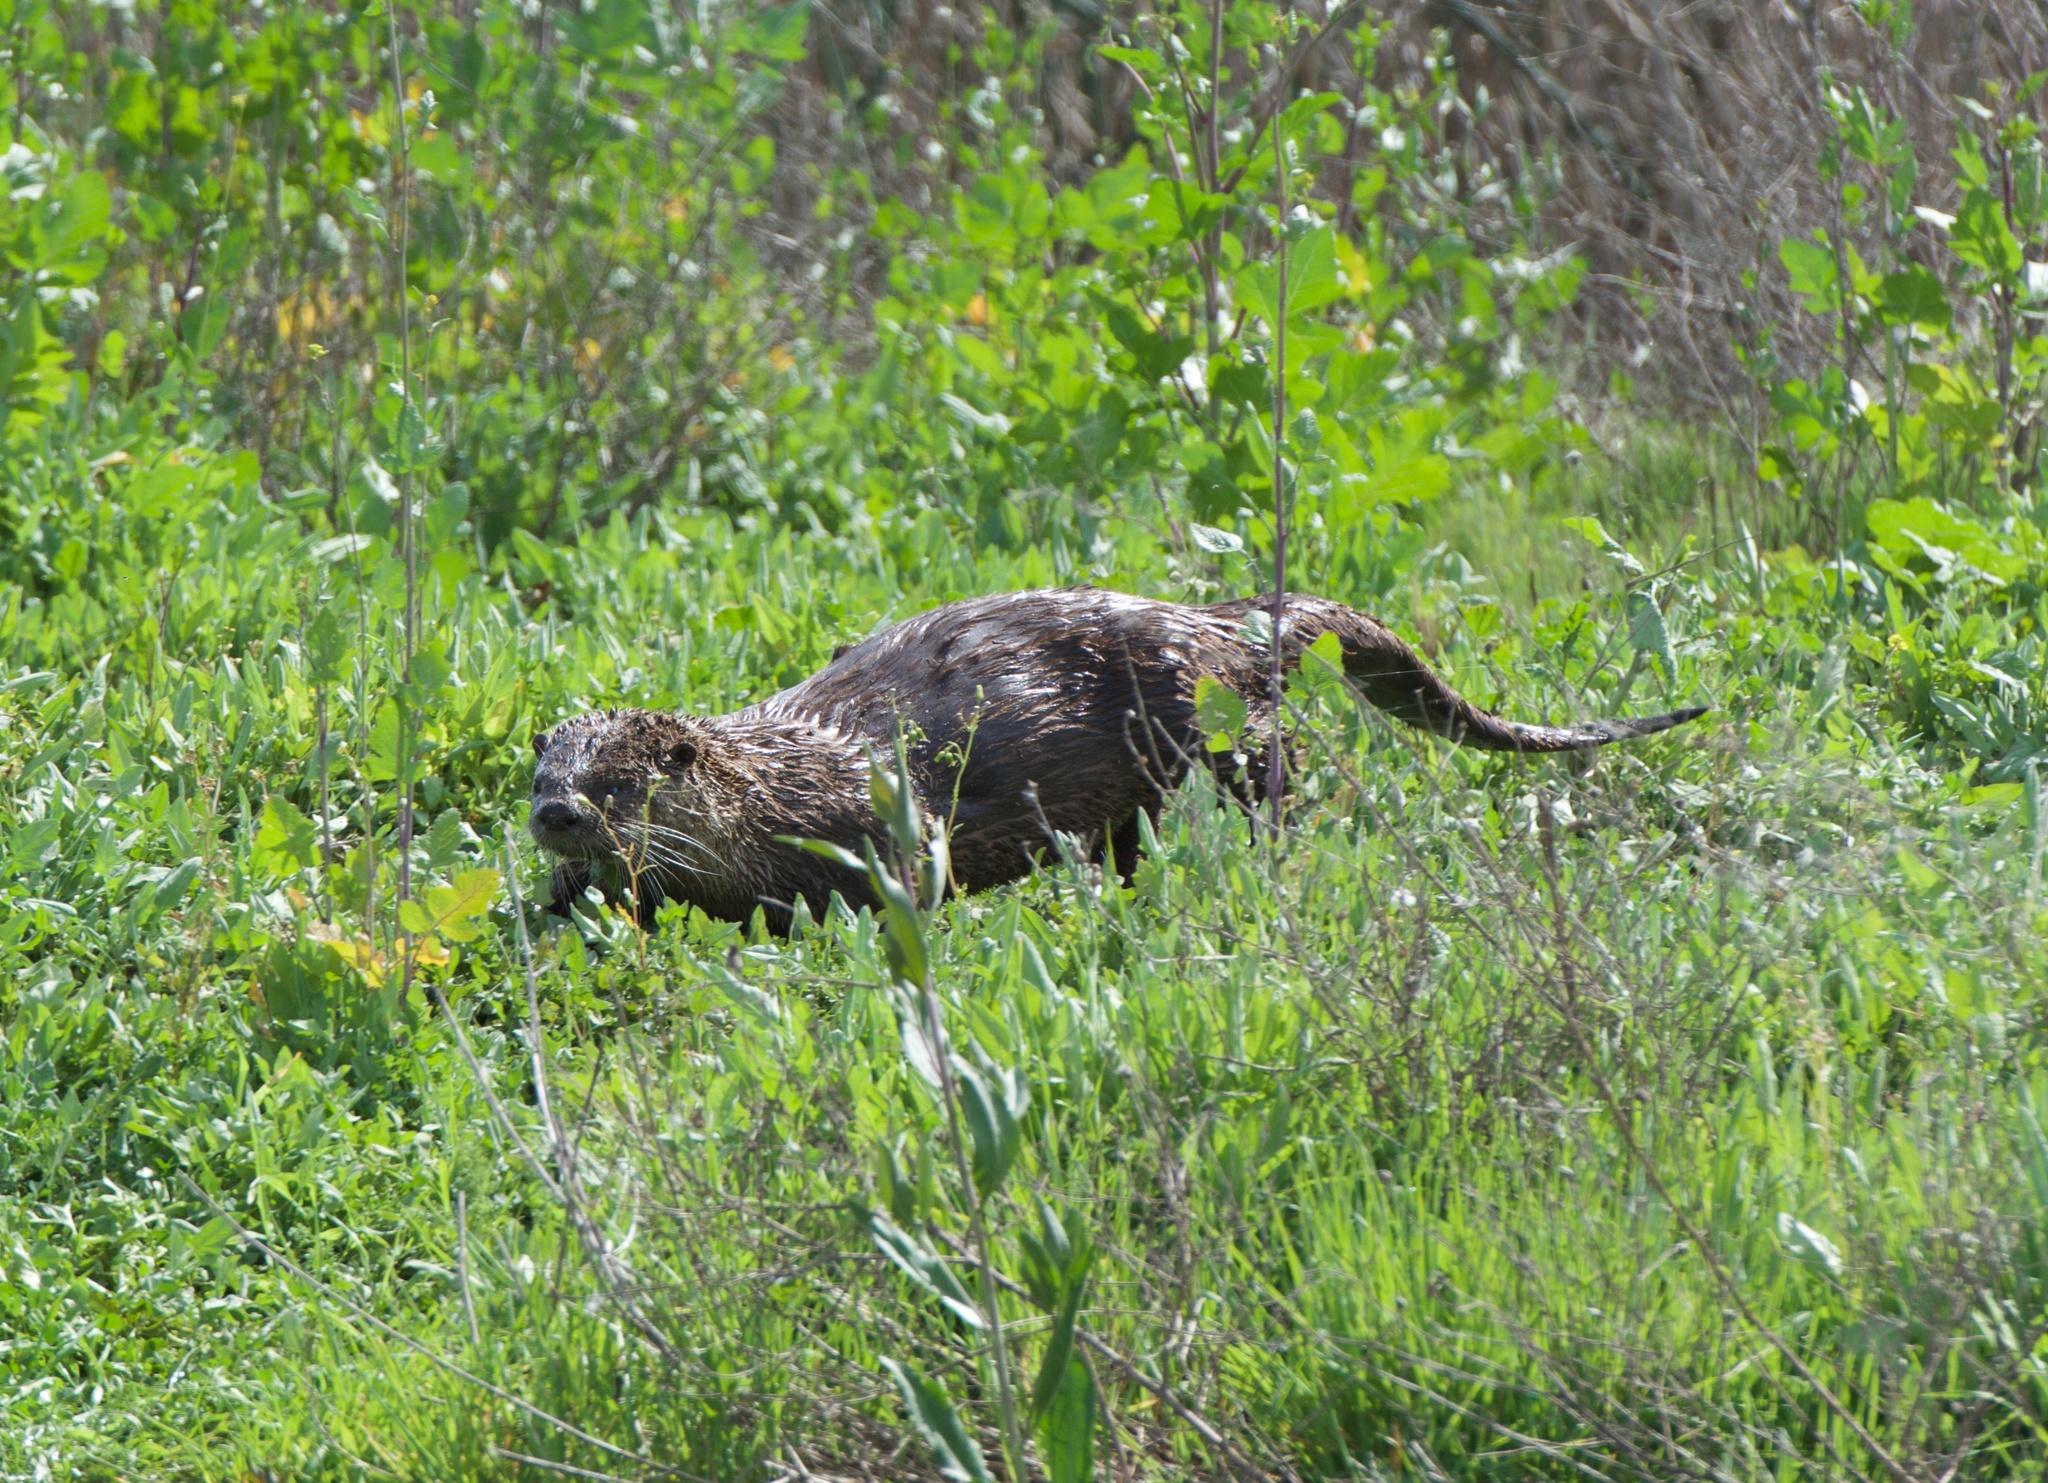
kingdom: Animalia
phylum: Chordata
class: Mammalia
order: Carnivora
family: Mustelidae
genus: Lontra
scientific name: Lontra canadensis
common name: North american river otter
